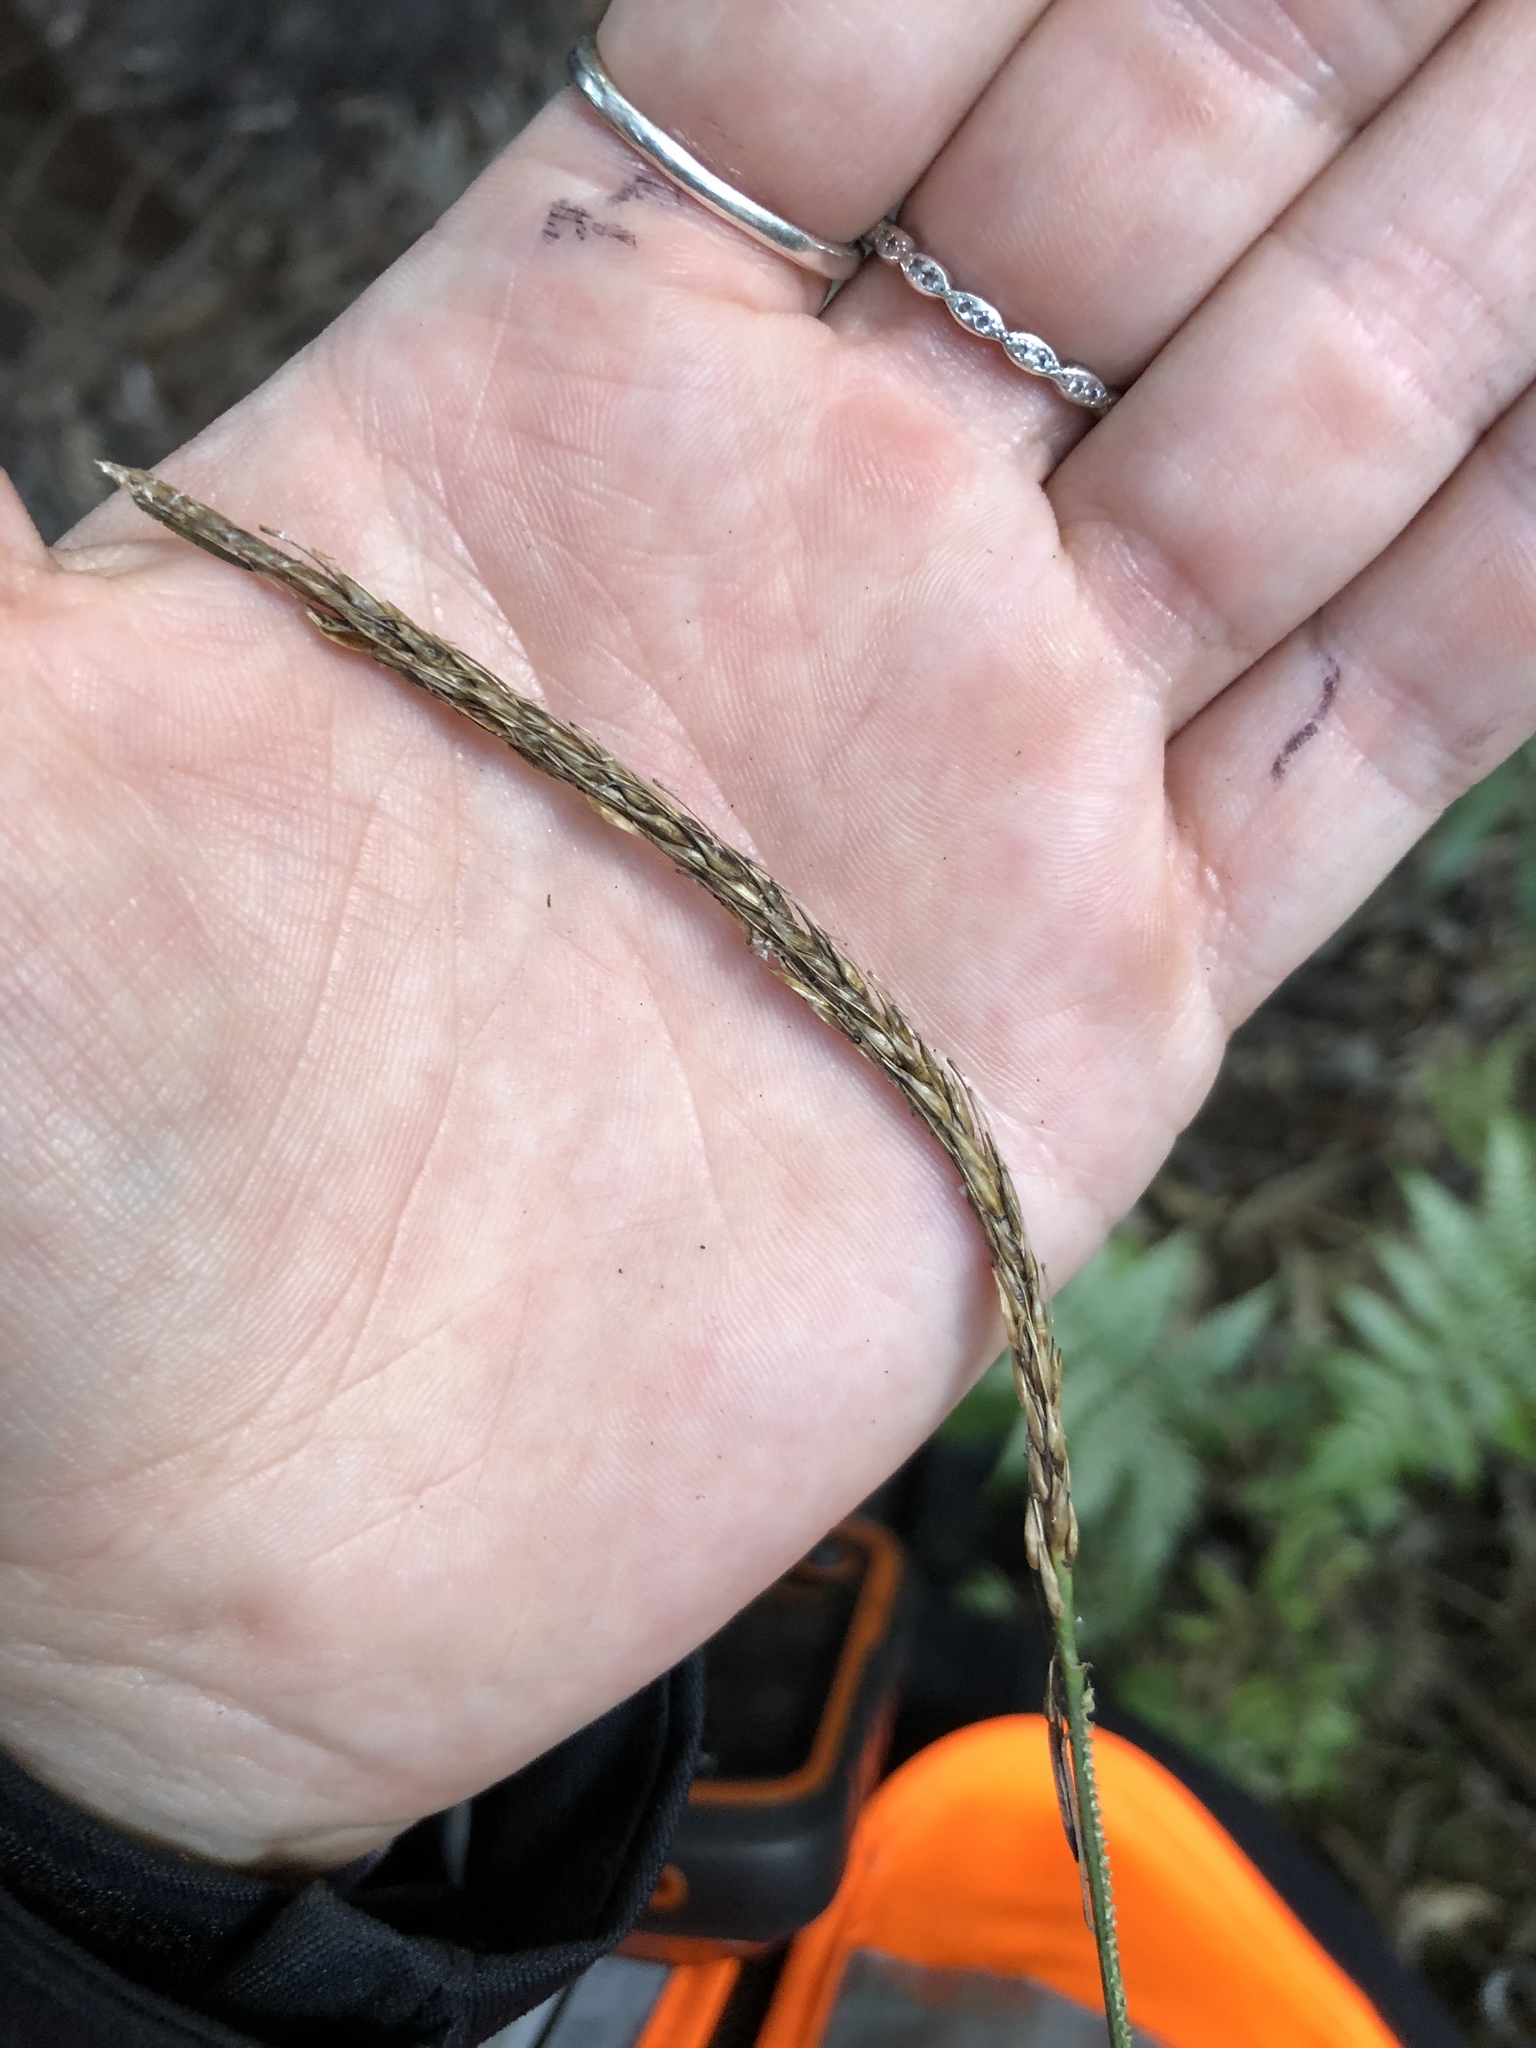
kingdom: Plantae
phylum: Tracheophyta
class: Liliopsida
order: Poales
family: Cyperaceae
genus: Carex
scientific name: Carex uncinata
